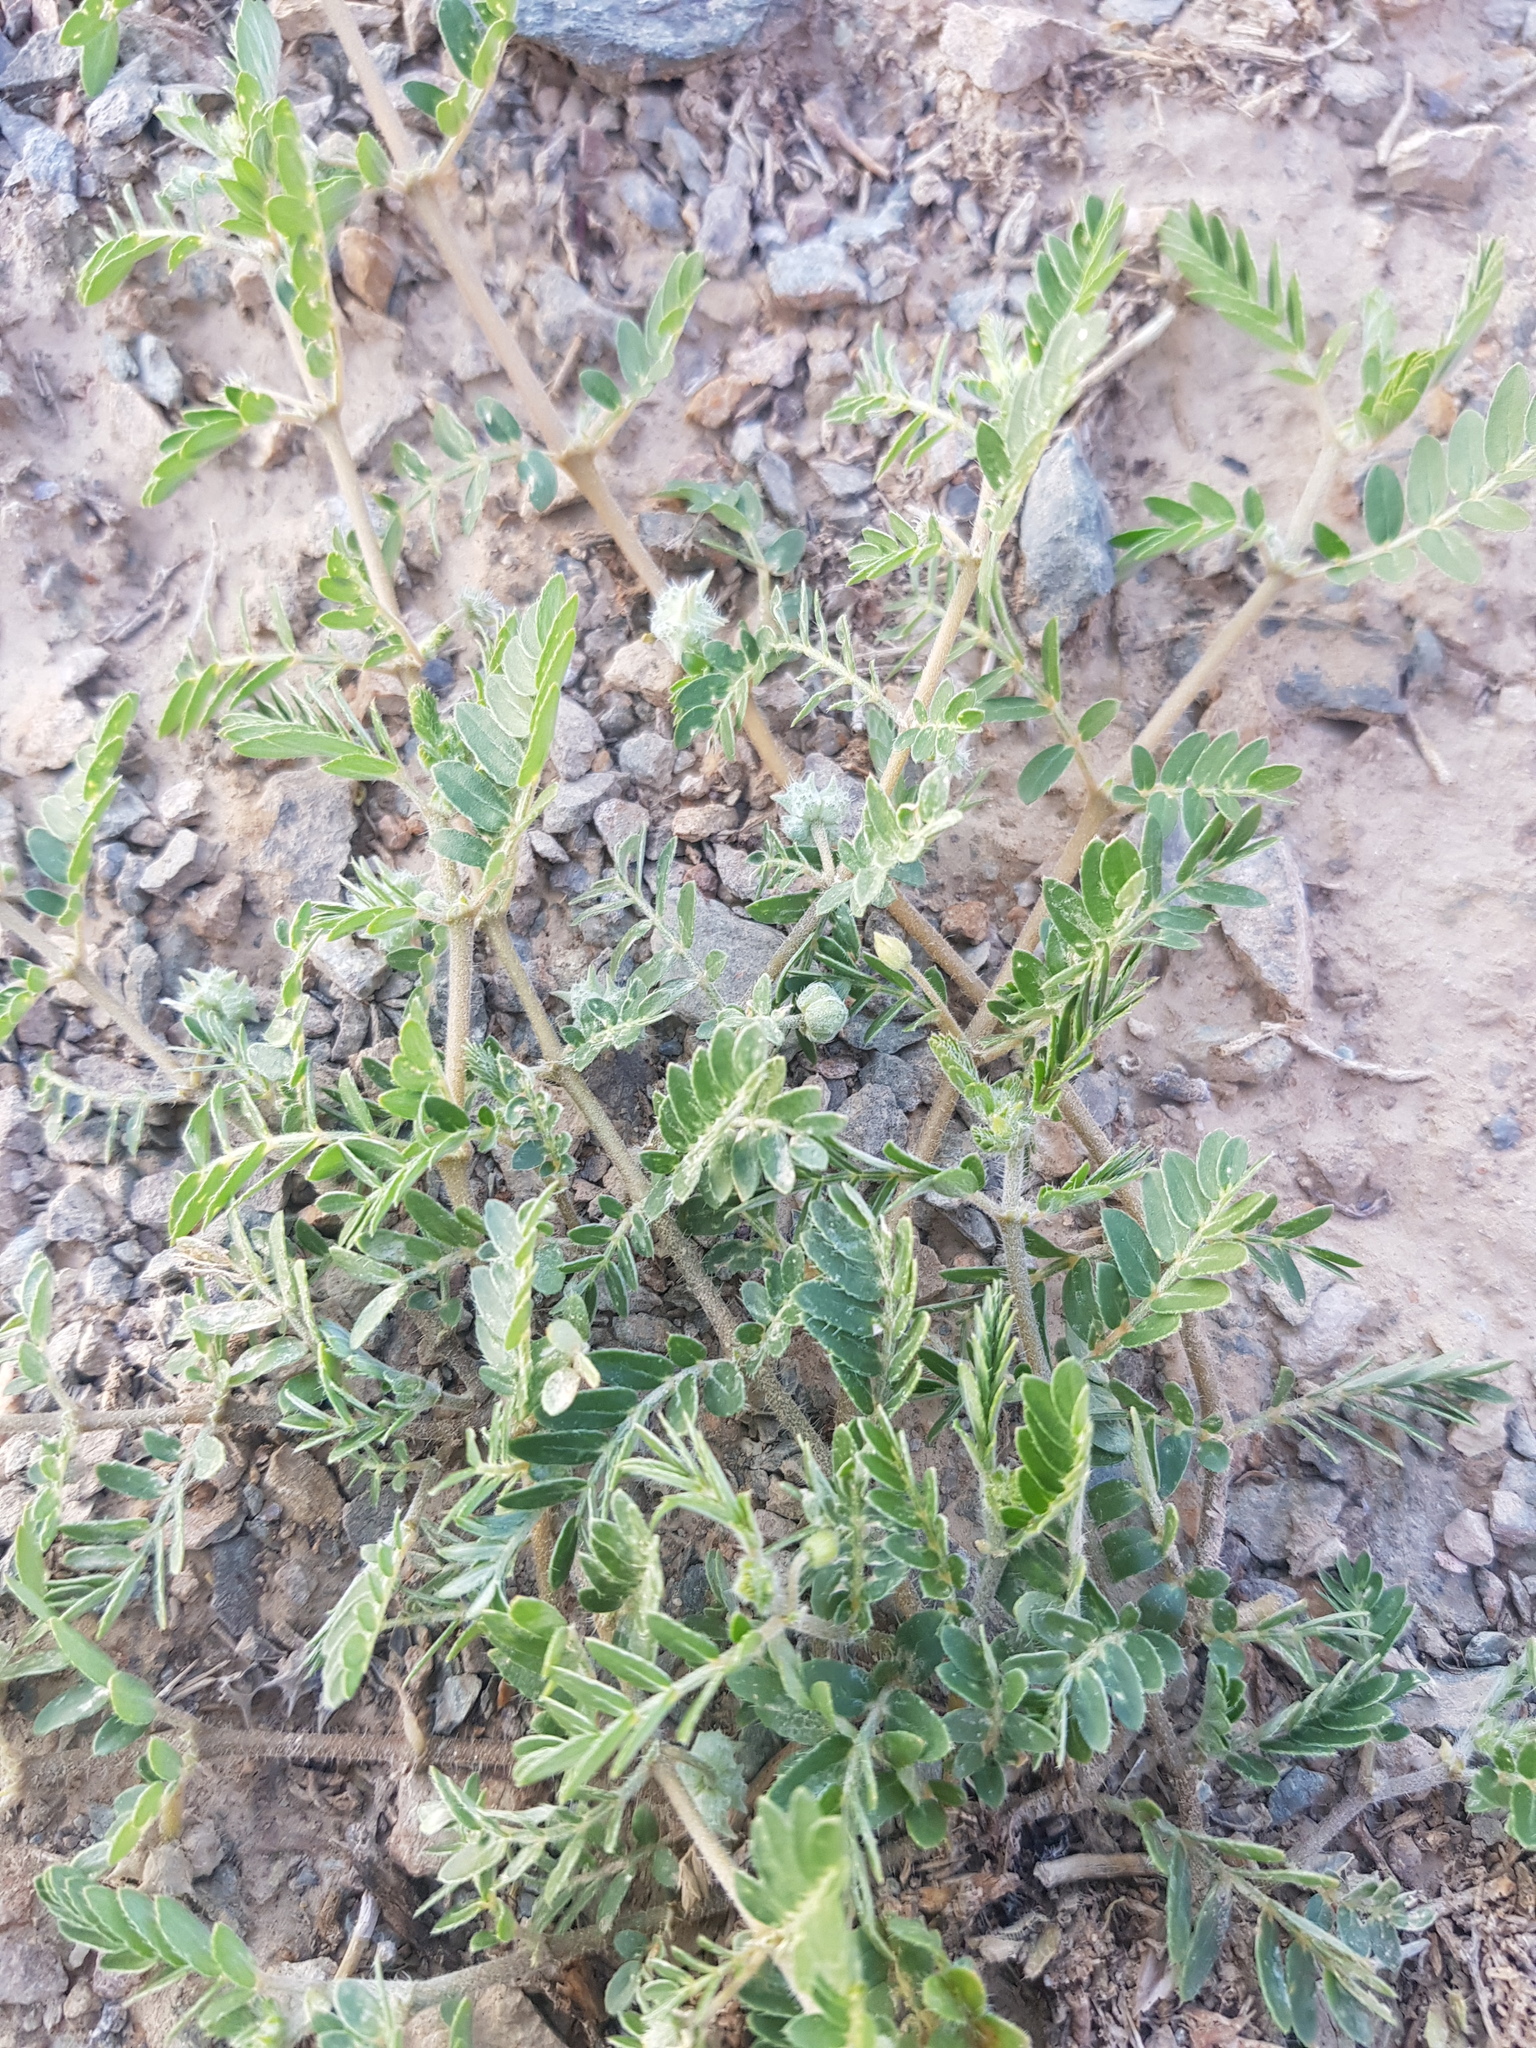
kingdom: Plantae
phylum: Tracheophyta
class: Magnoliopsida
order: Zygophyllales
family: Zygophyllaceae
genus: Tribulus
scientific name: Tribulus terrestris
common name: Puncturevine
